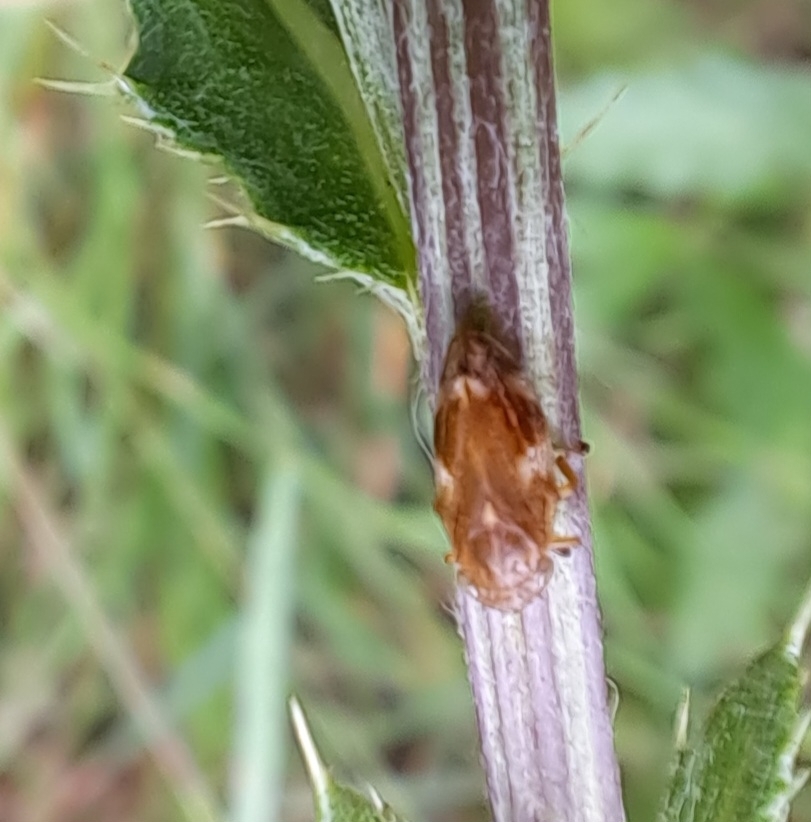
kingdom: Animalia
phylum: Arthropoda
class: Insecta
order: Hemiptera
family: Aphrophoridae
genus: Philaenus
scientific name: Philaenus spumarius
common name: Meadow spittlebug
